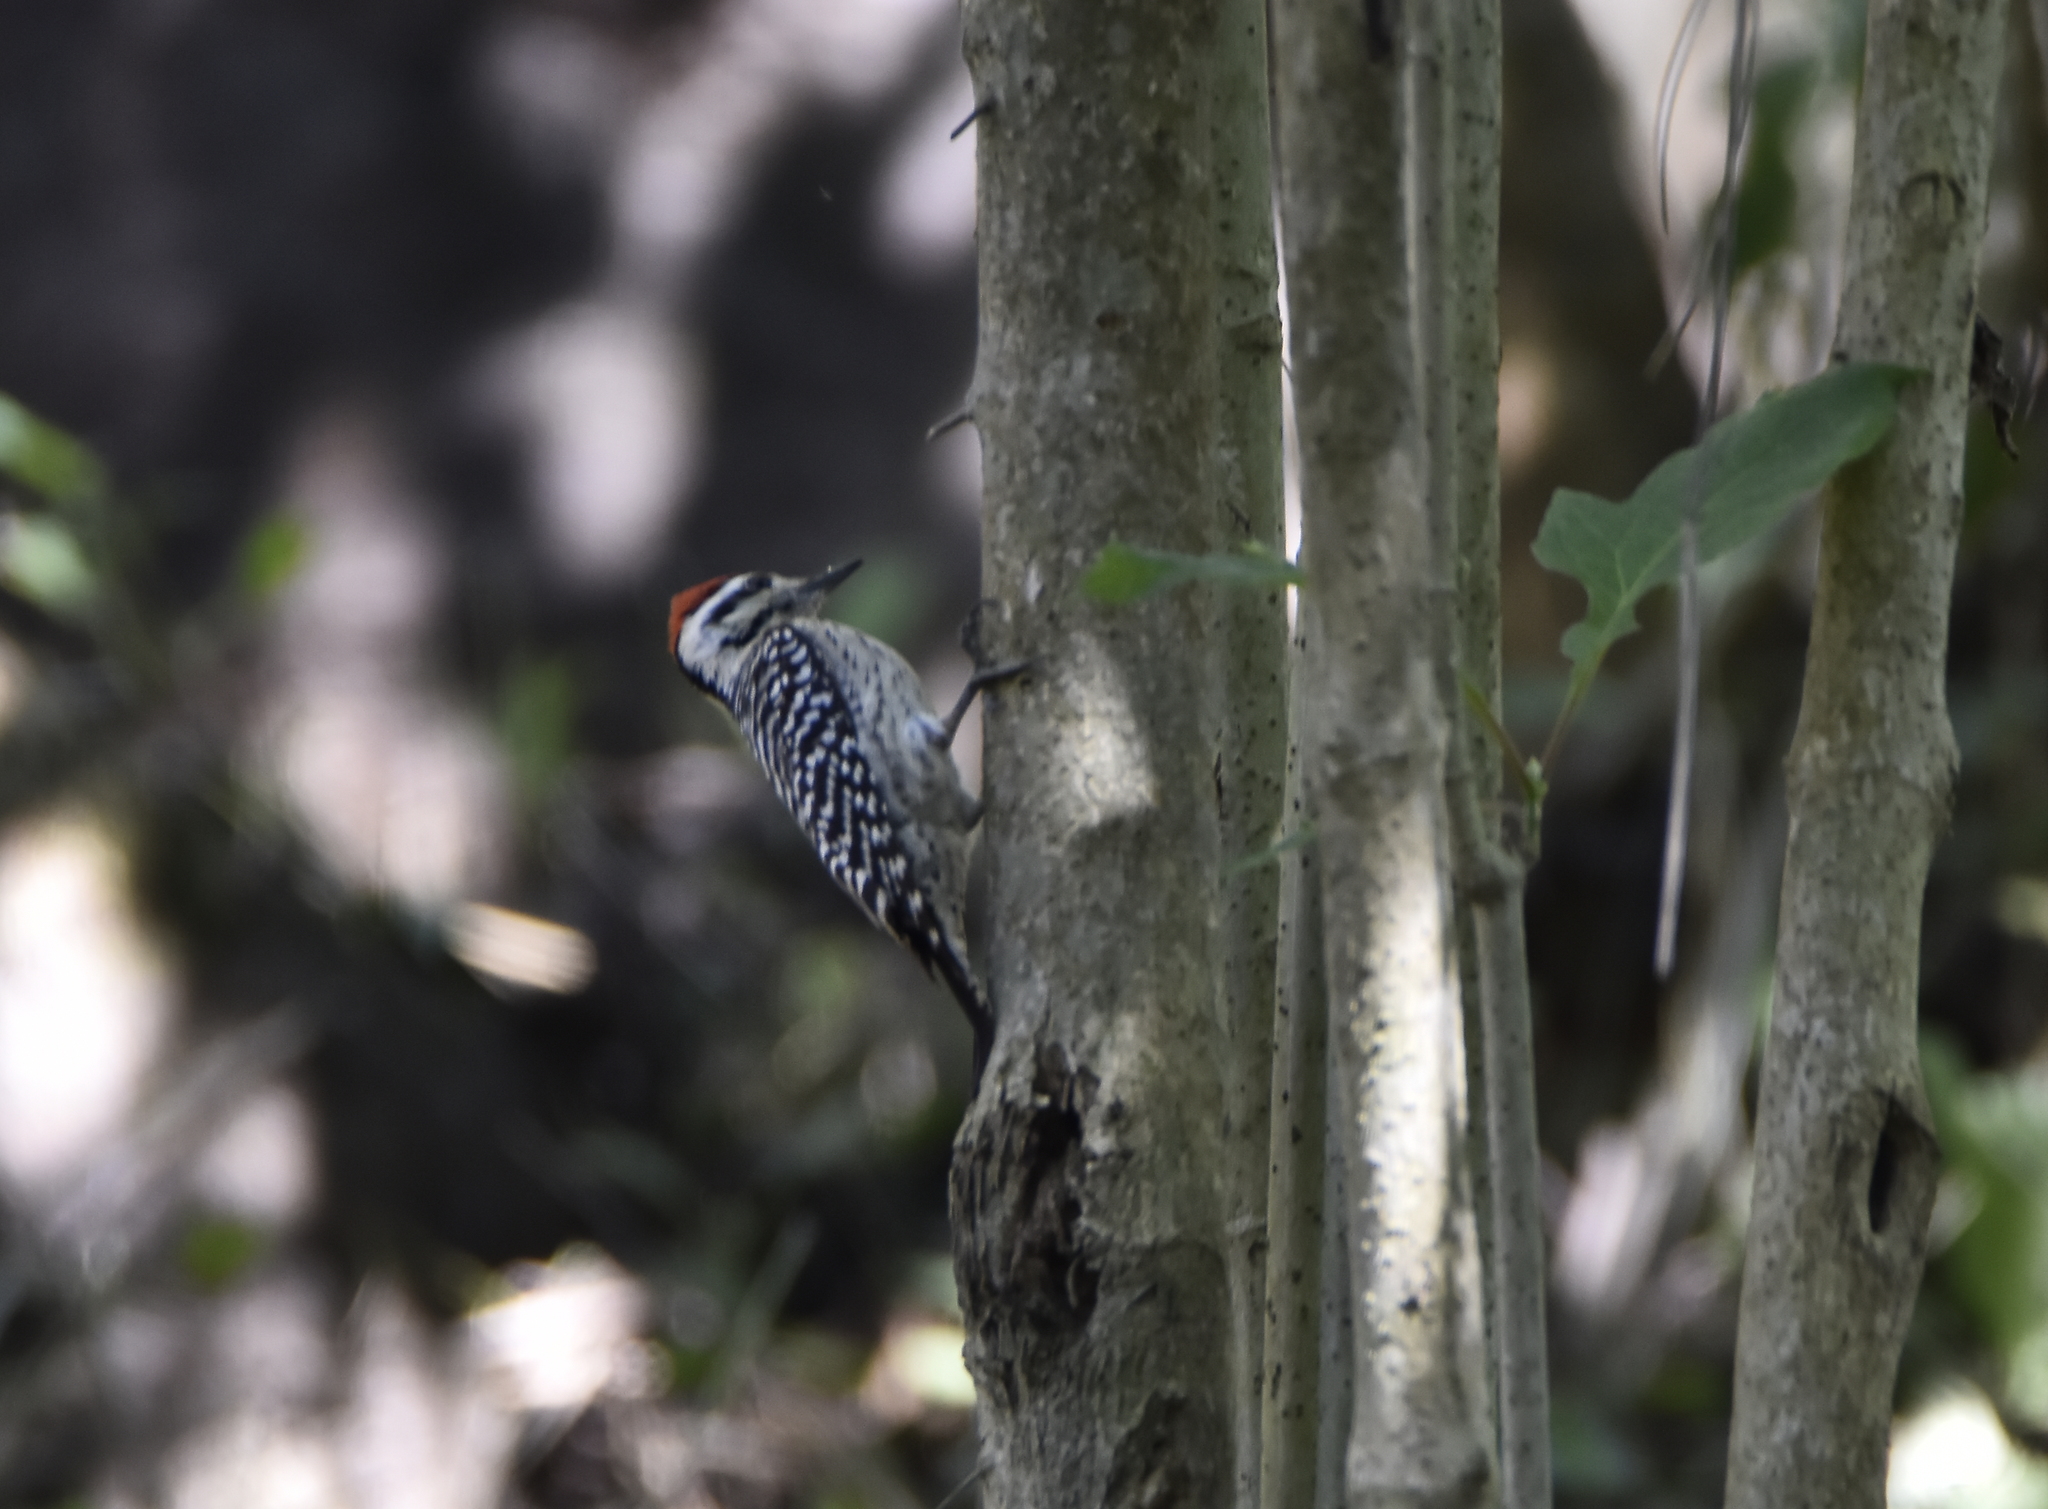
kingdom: Animalia
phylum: Chordata
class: Aves
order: Piciformes
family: Picidae
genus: Dryobates
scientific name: Dryobates scalaris
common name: Ladder-backed woodpecker
